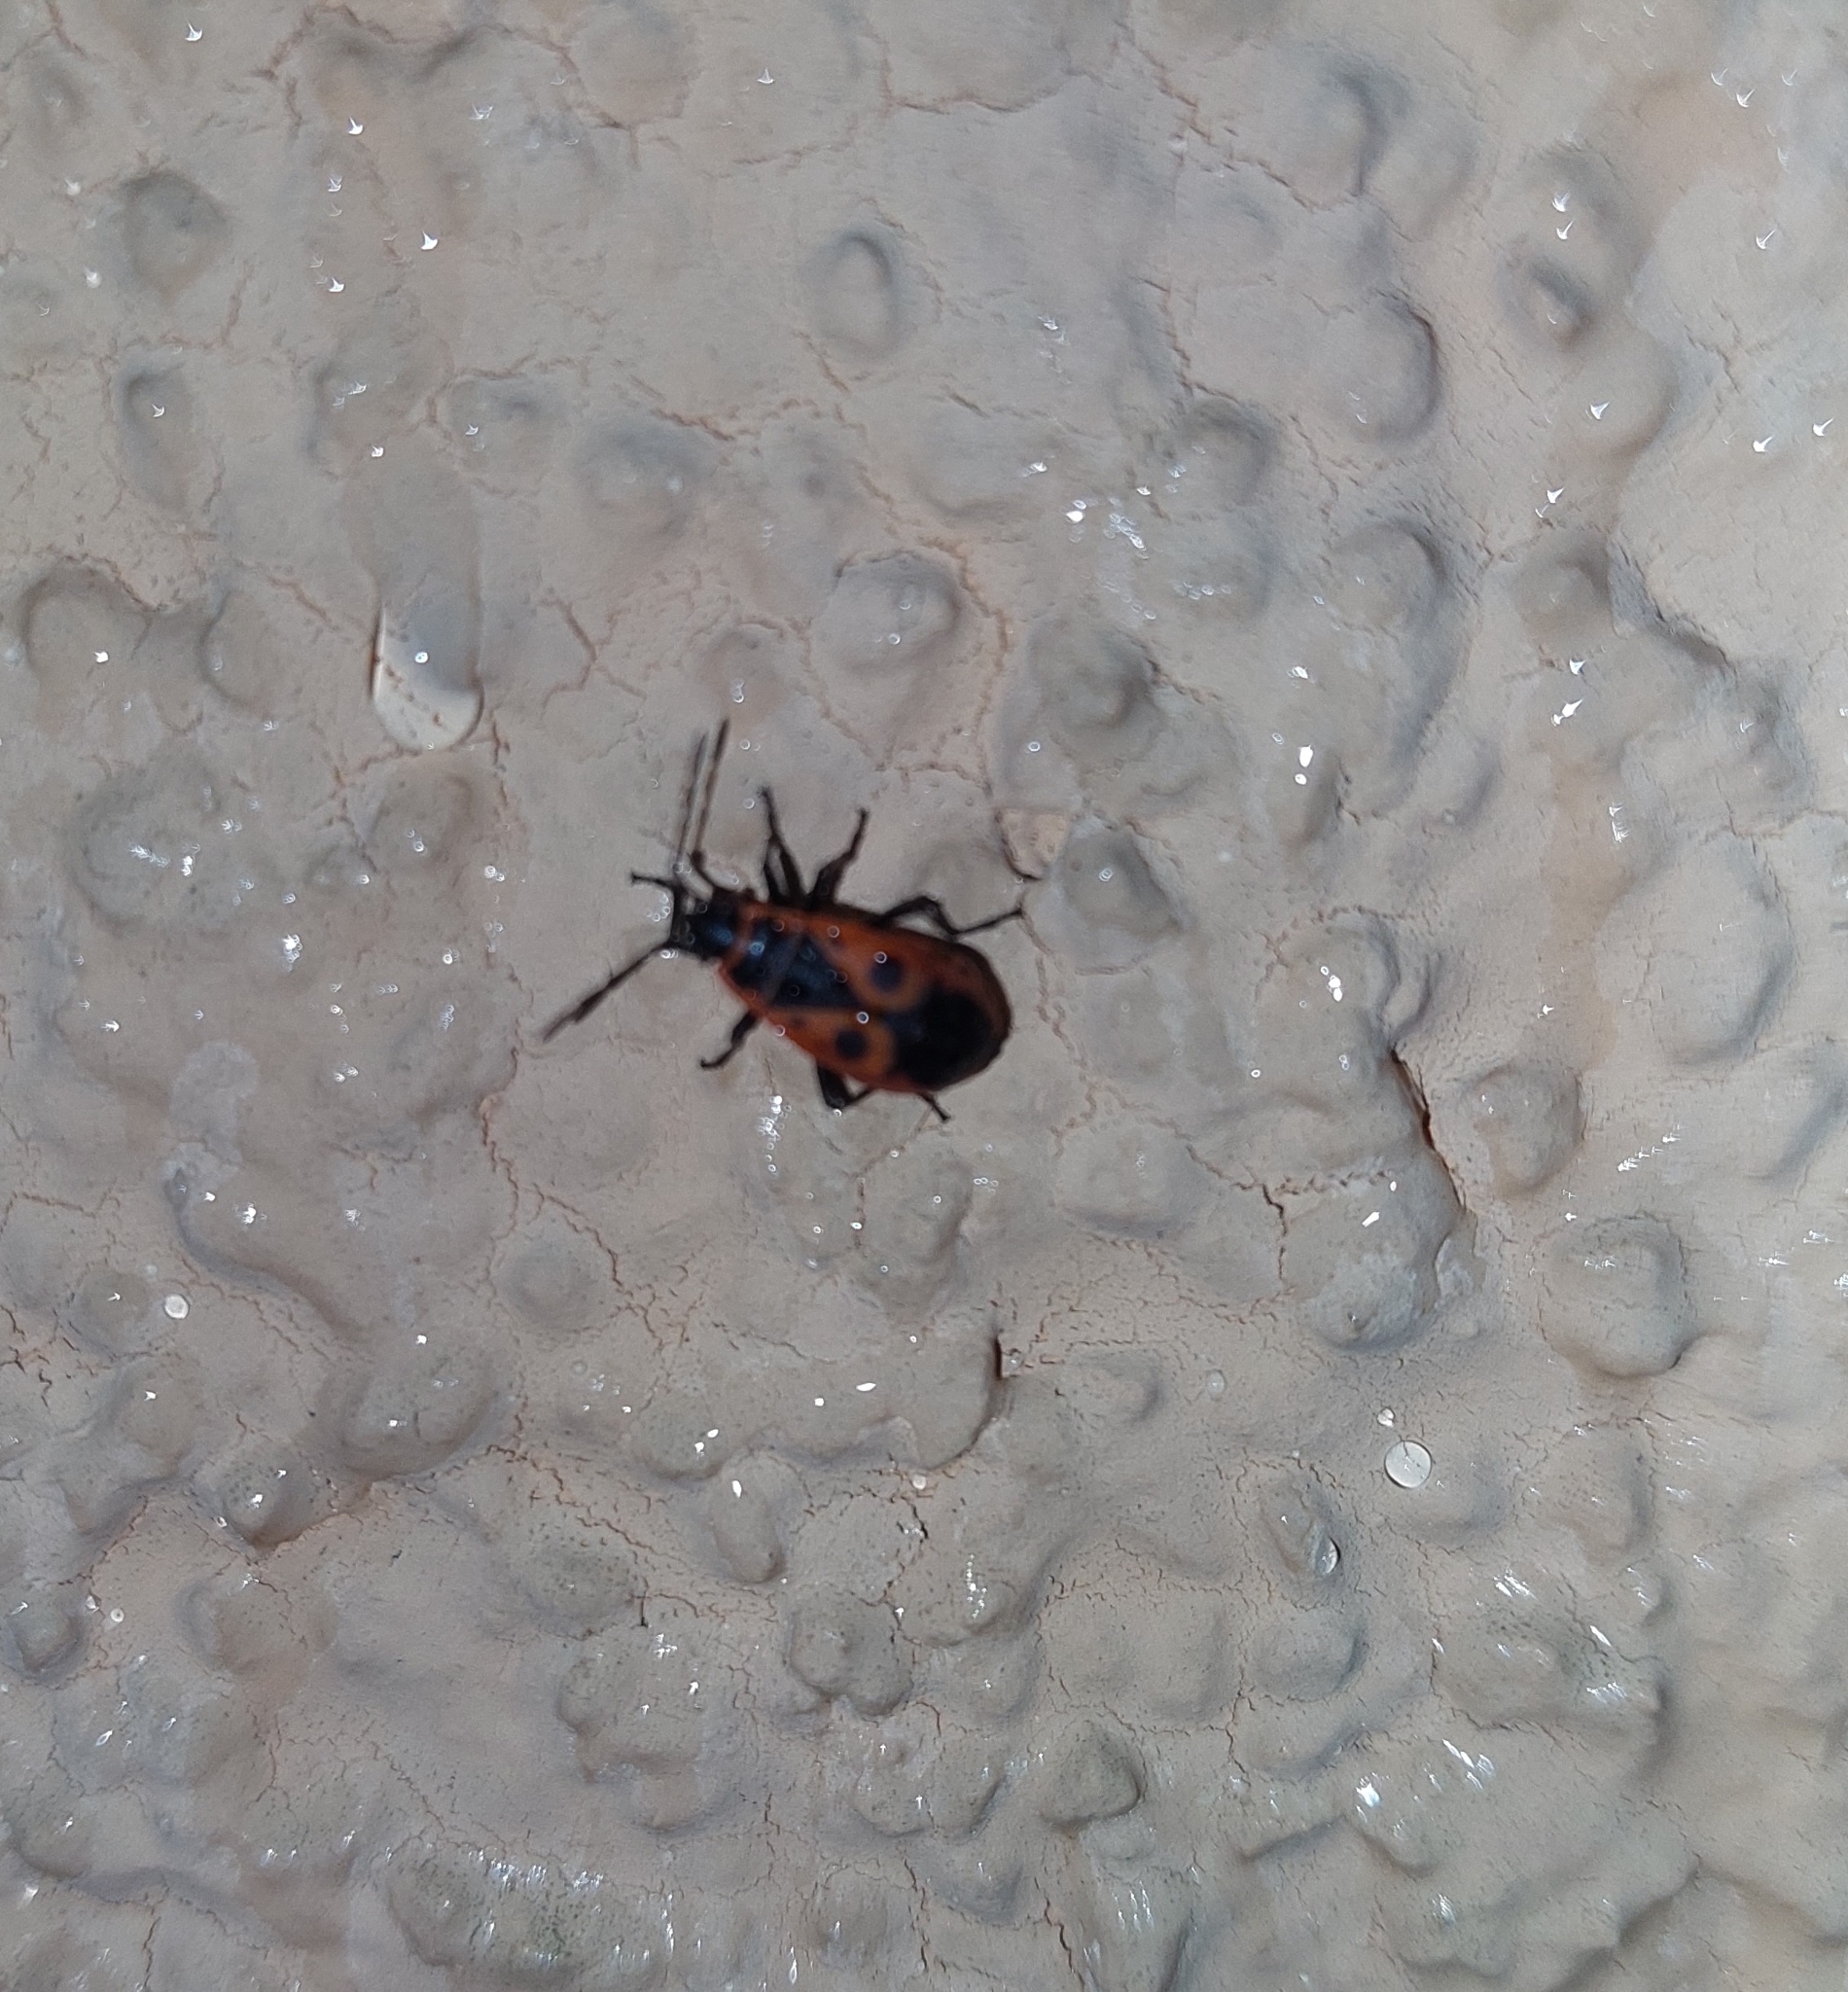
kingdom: Animalia
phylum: Arthropoda
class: Insecta
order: Hemiptera
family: Pyrrhocoridae
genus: Pyrrhocoris
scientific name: Pyrrhocoris apterus
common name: Firebug
